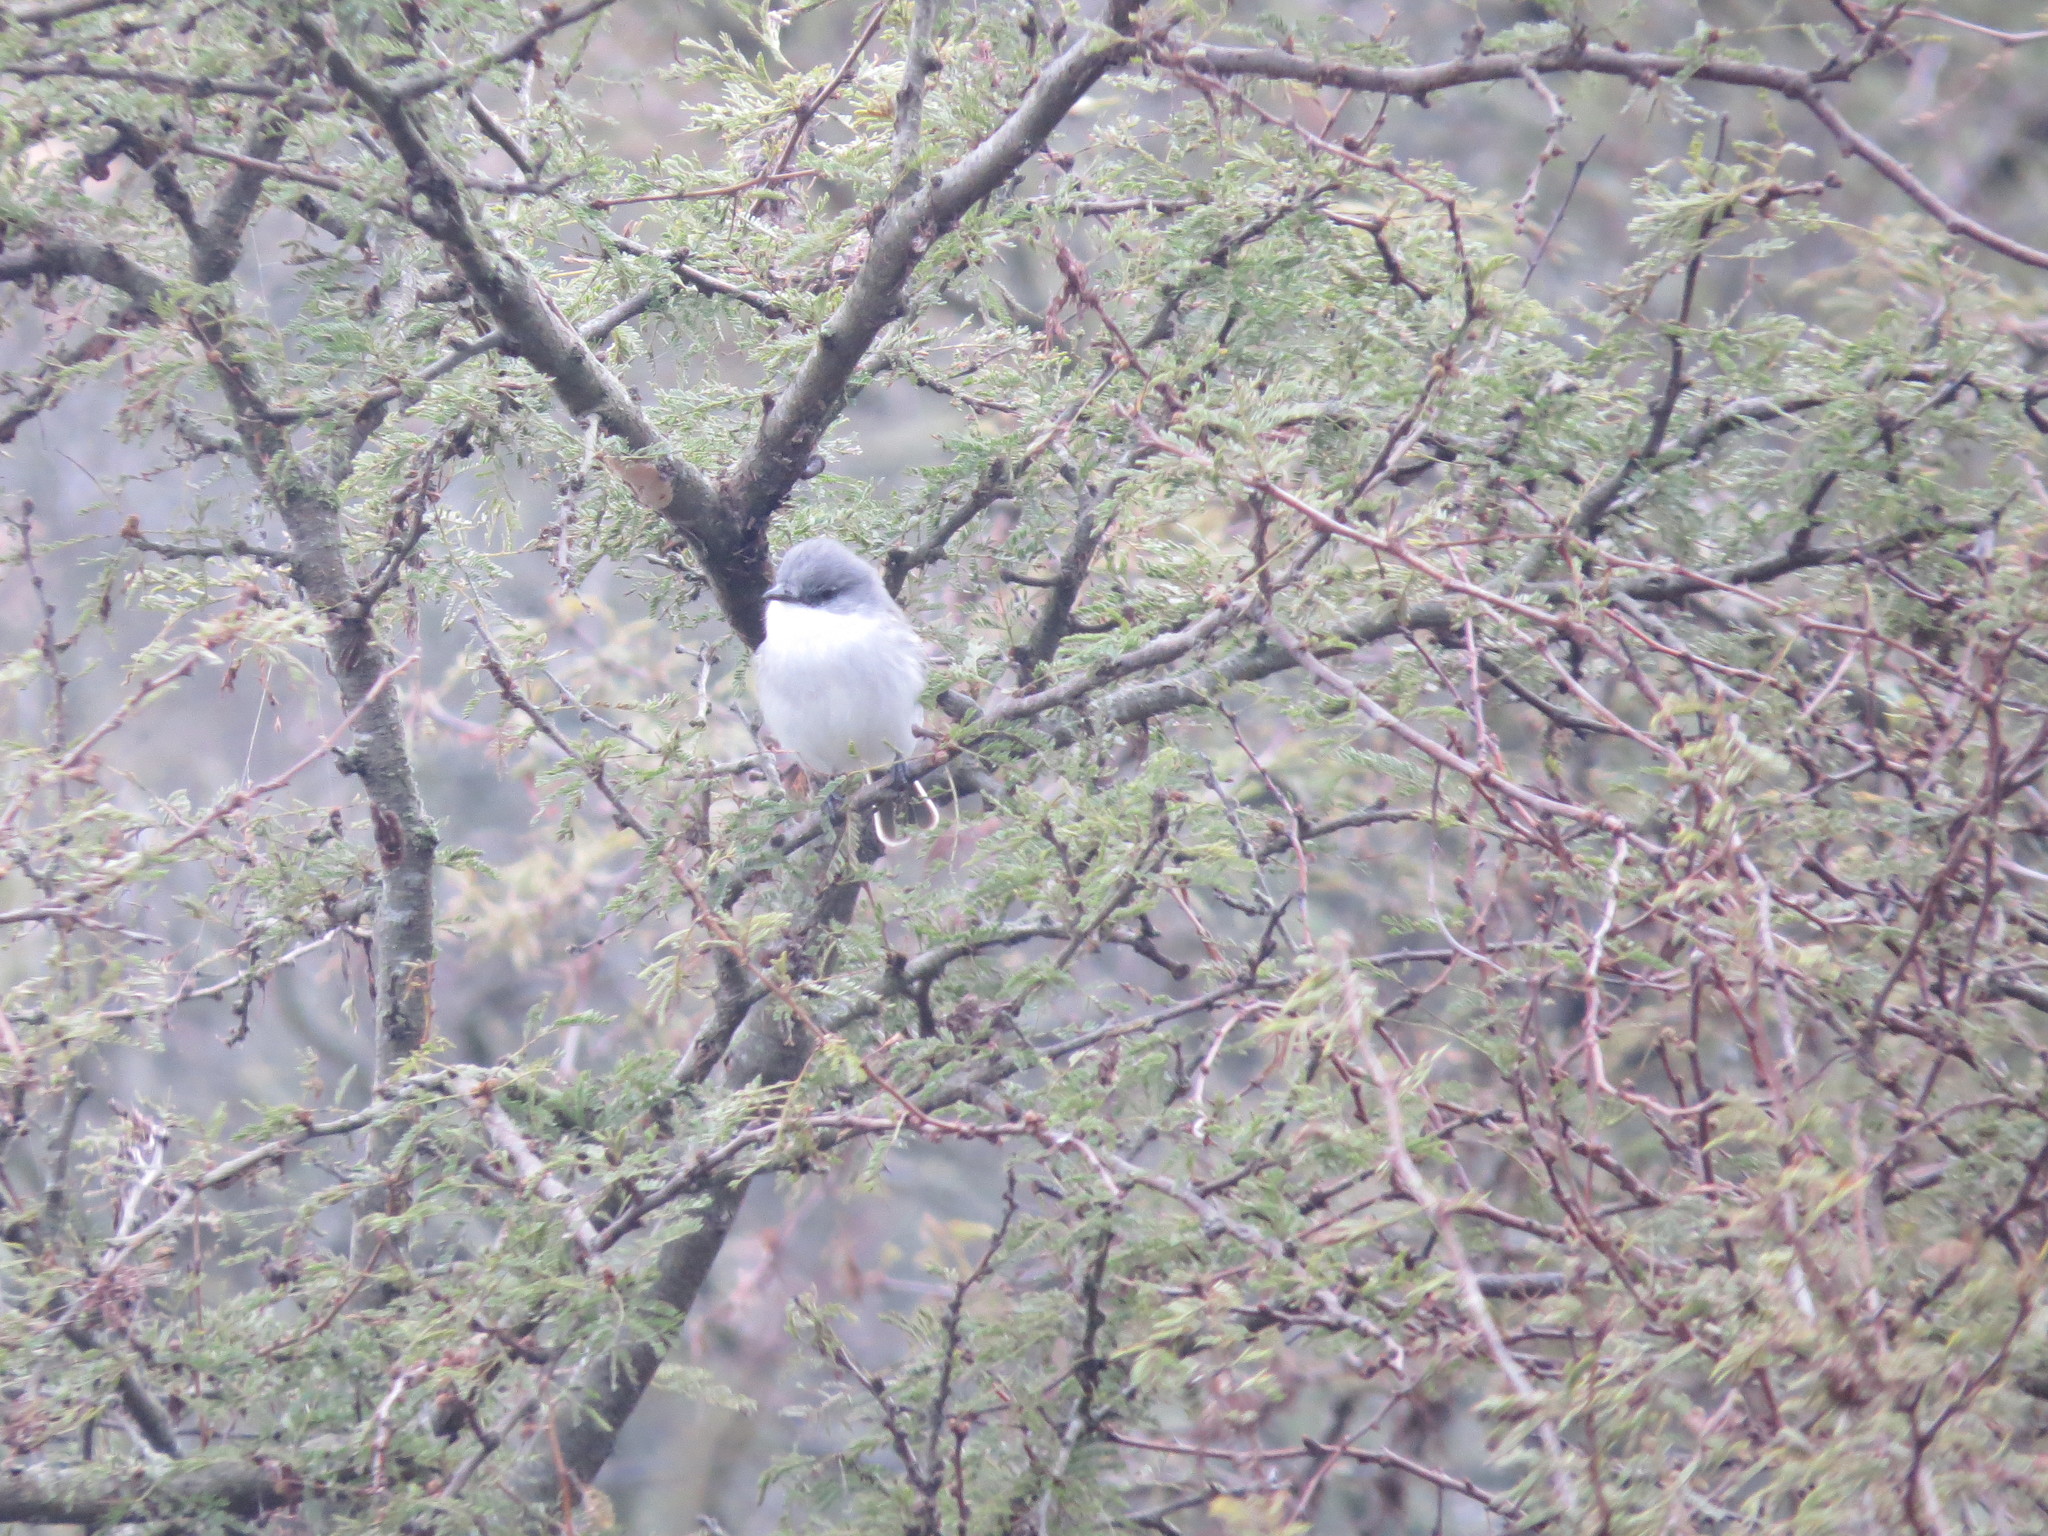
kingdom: Animalia
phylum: Chordata
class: Aves
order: Passeriformes
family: Tyrannidae
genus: Suiriri
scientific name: Suiriri suiriri
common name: Suiriri flycatcher
